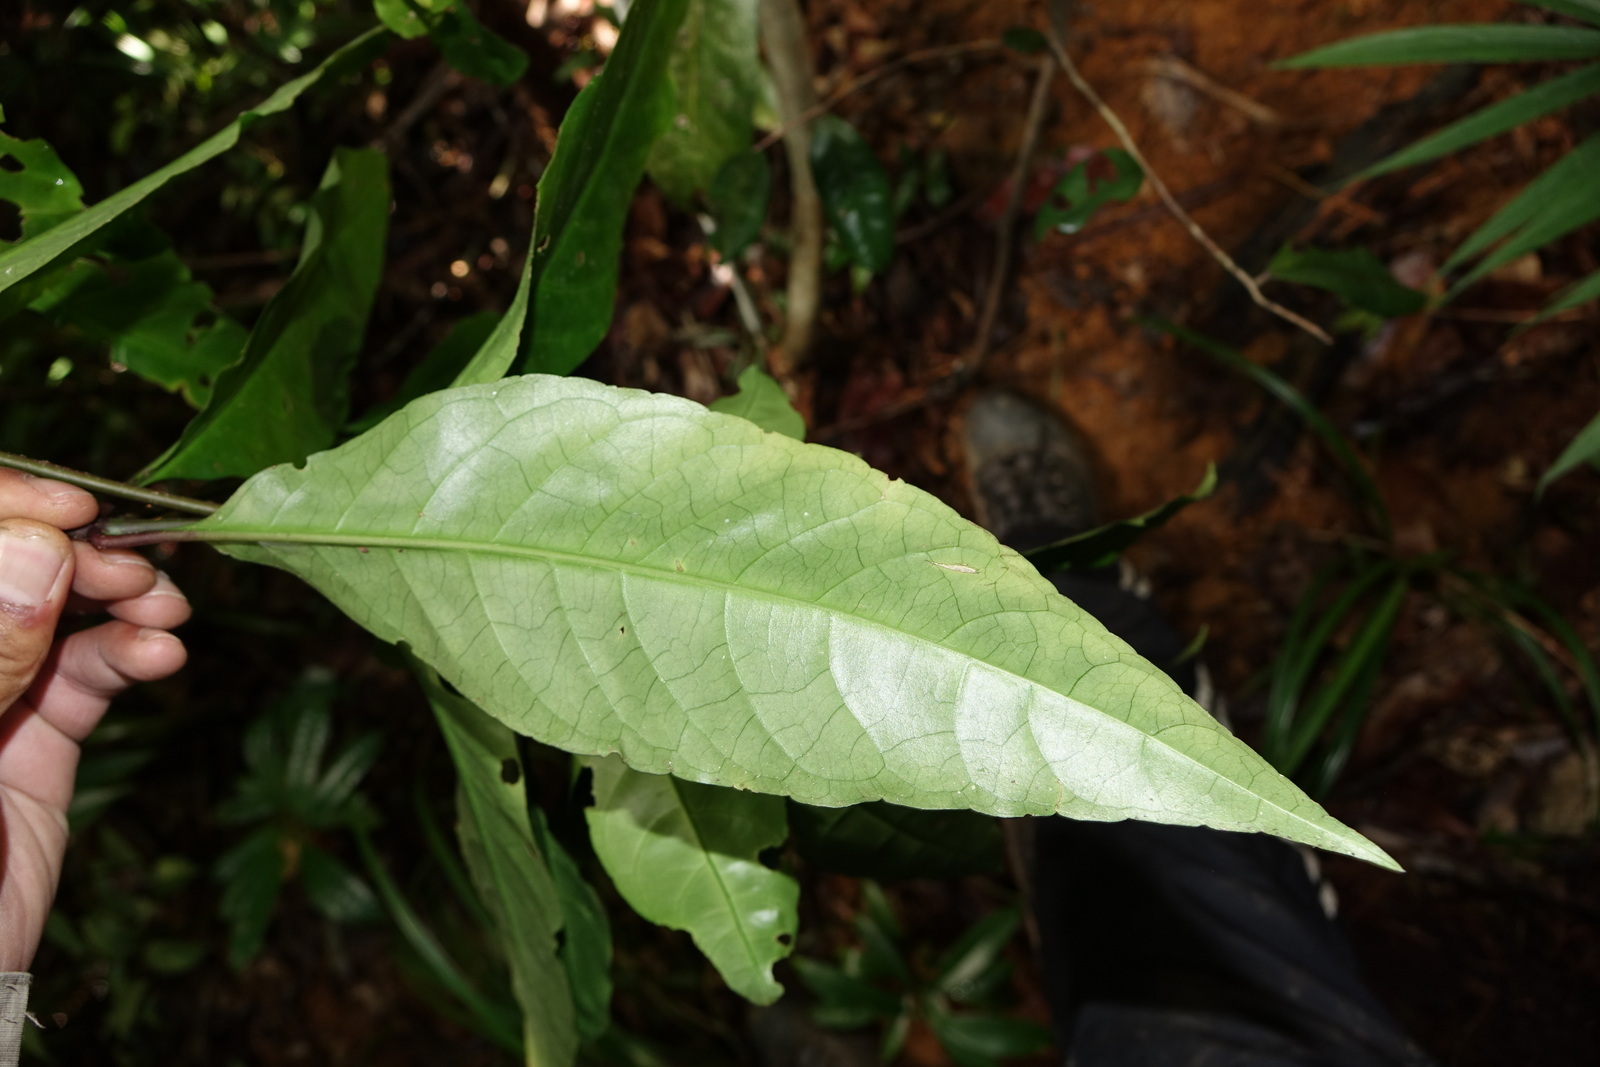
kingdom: Plantae
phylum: Tracheophyta
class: Magnoliopsida
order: Lamiales
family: Acanthaceae
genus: Hypoestes
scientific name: Hypoestes multispicata
